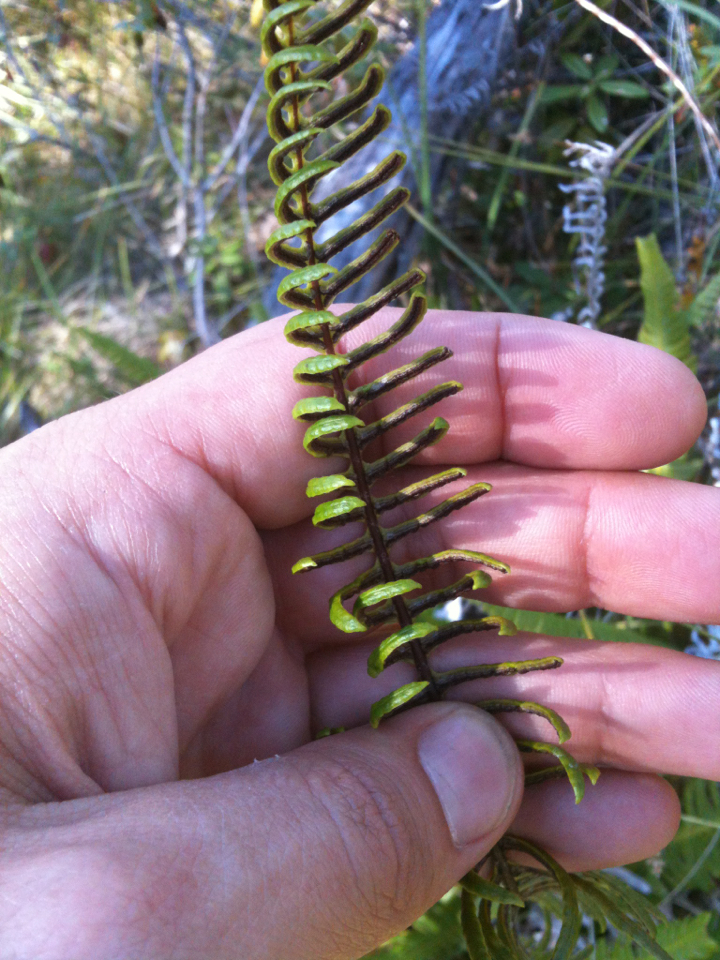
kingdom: Plantae
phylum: Tracheophyta
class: Polypodiopsida
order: Polypodiales
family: Blechnaceae
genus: Struthiopteris
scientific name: Struthiopteris spicant
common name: Deer fern
